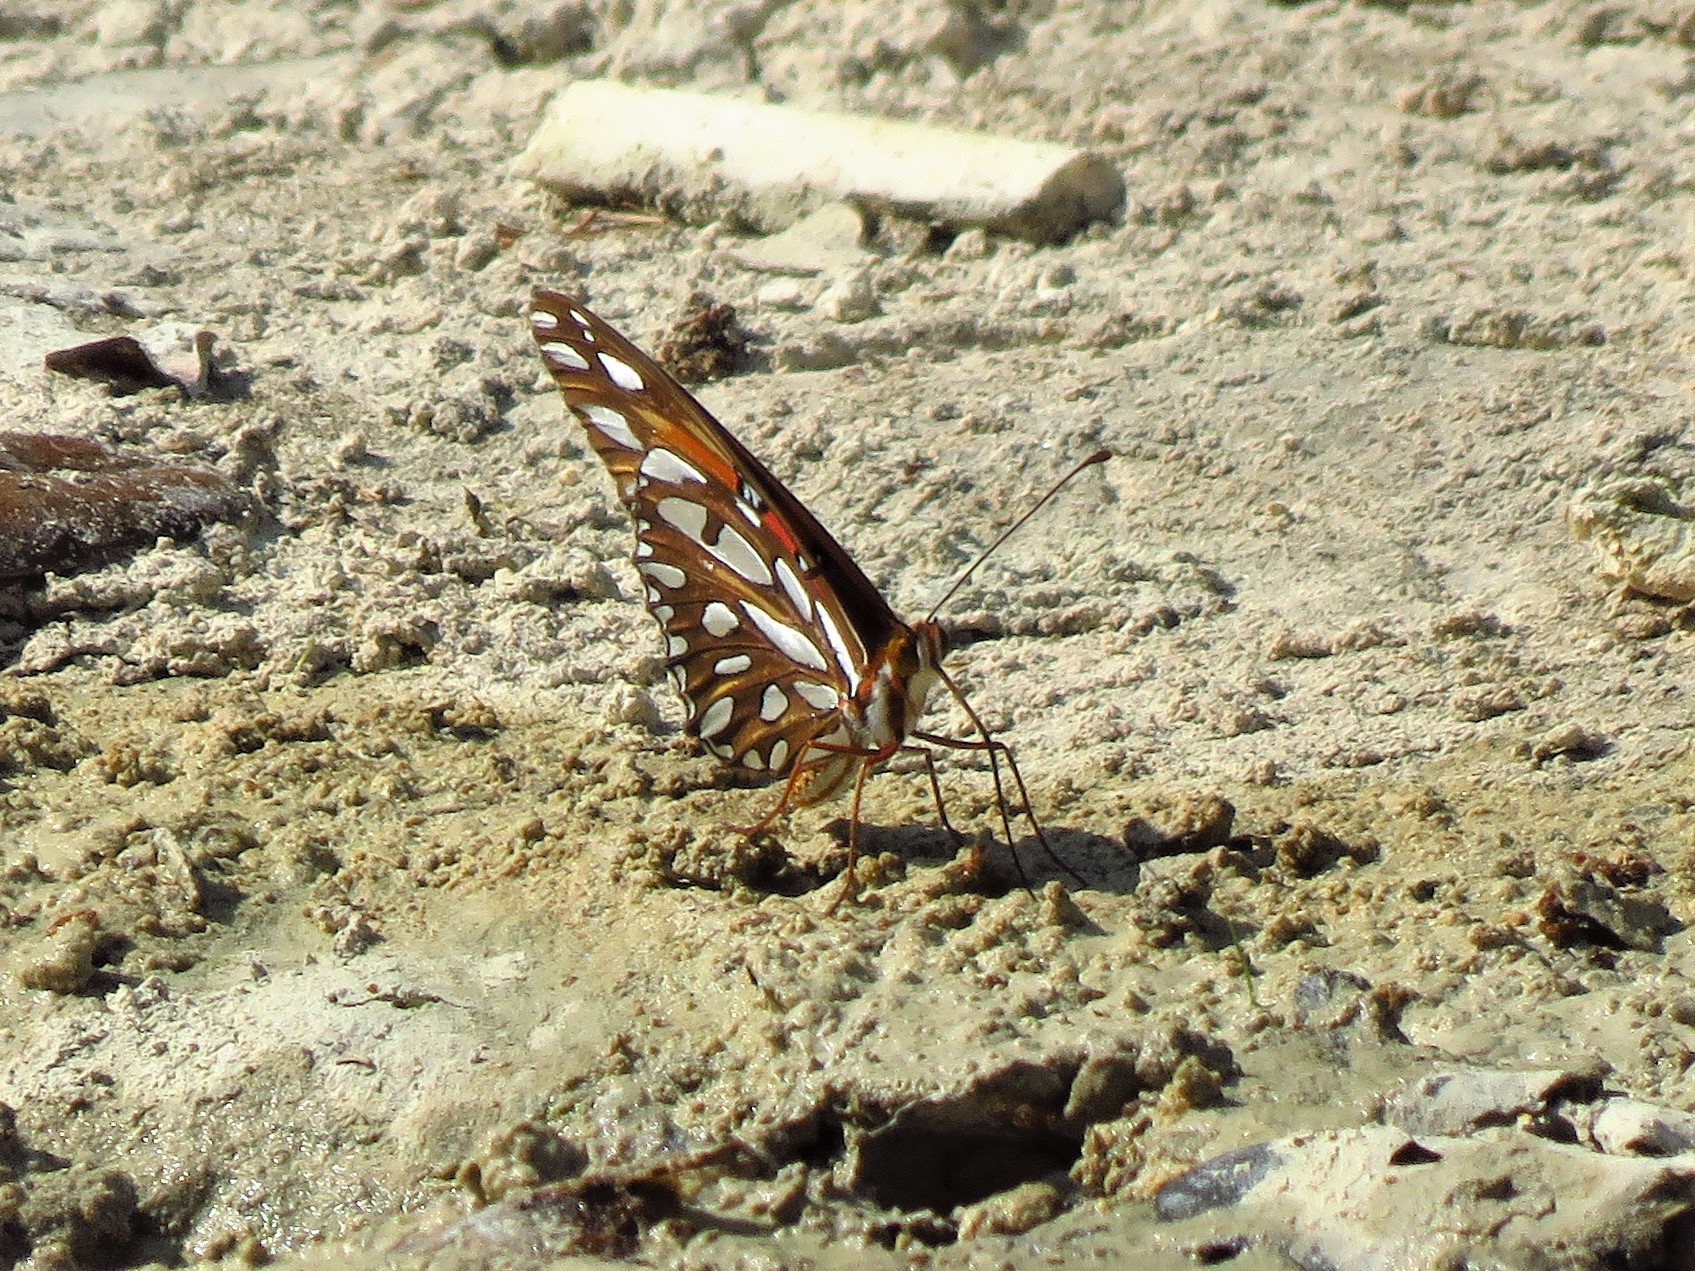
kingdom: Animalia
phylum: Arthropoda
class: Insecta
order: Lepidoptera
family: Nymphalidae
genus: Dione
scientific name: Dione vanillae
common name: Gulf fritillary
